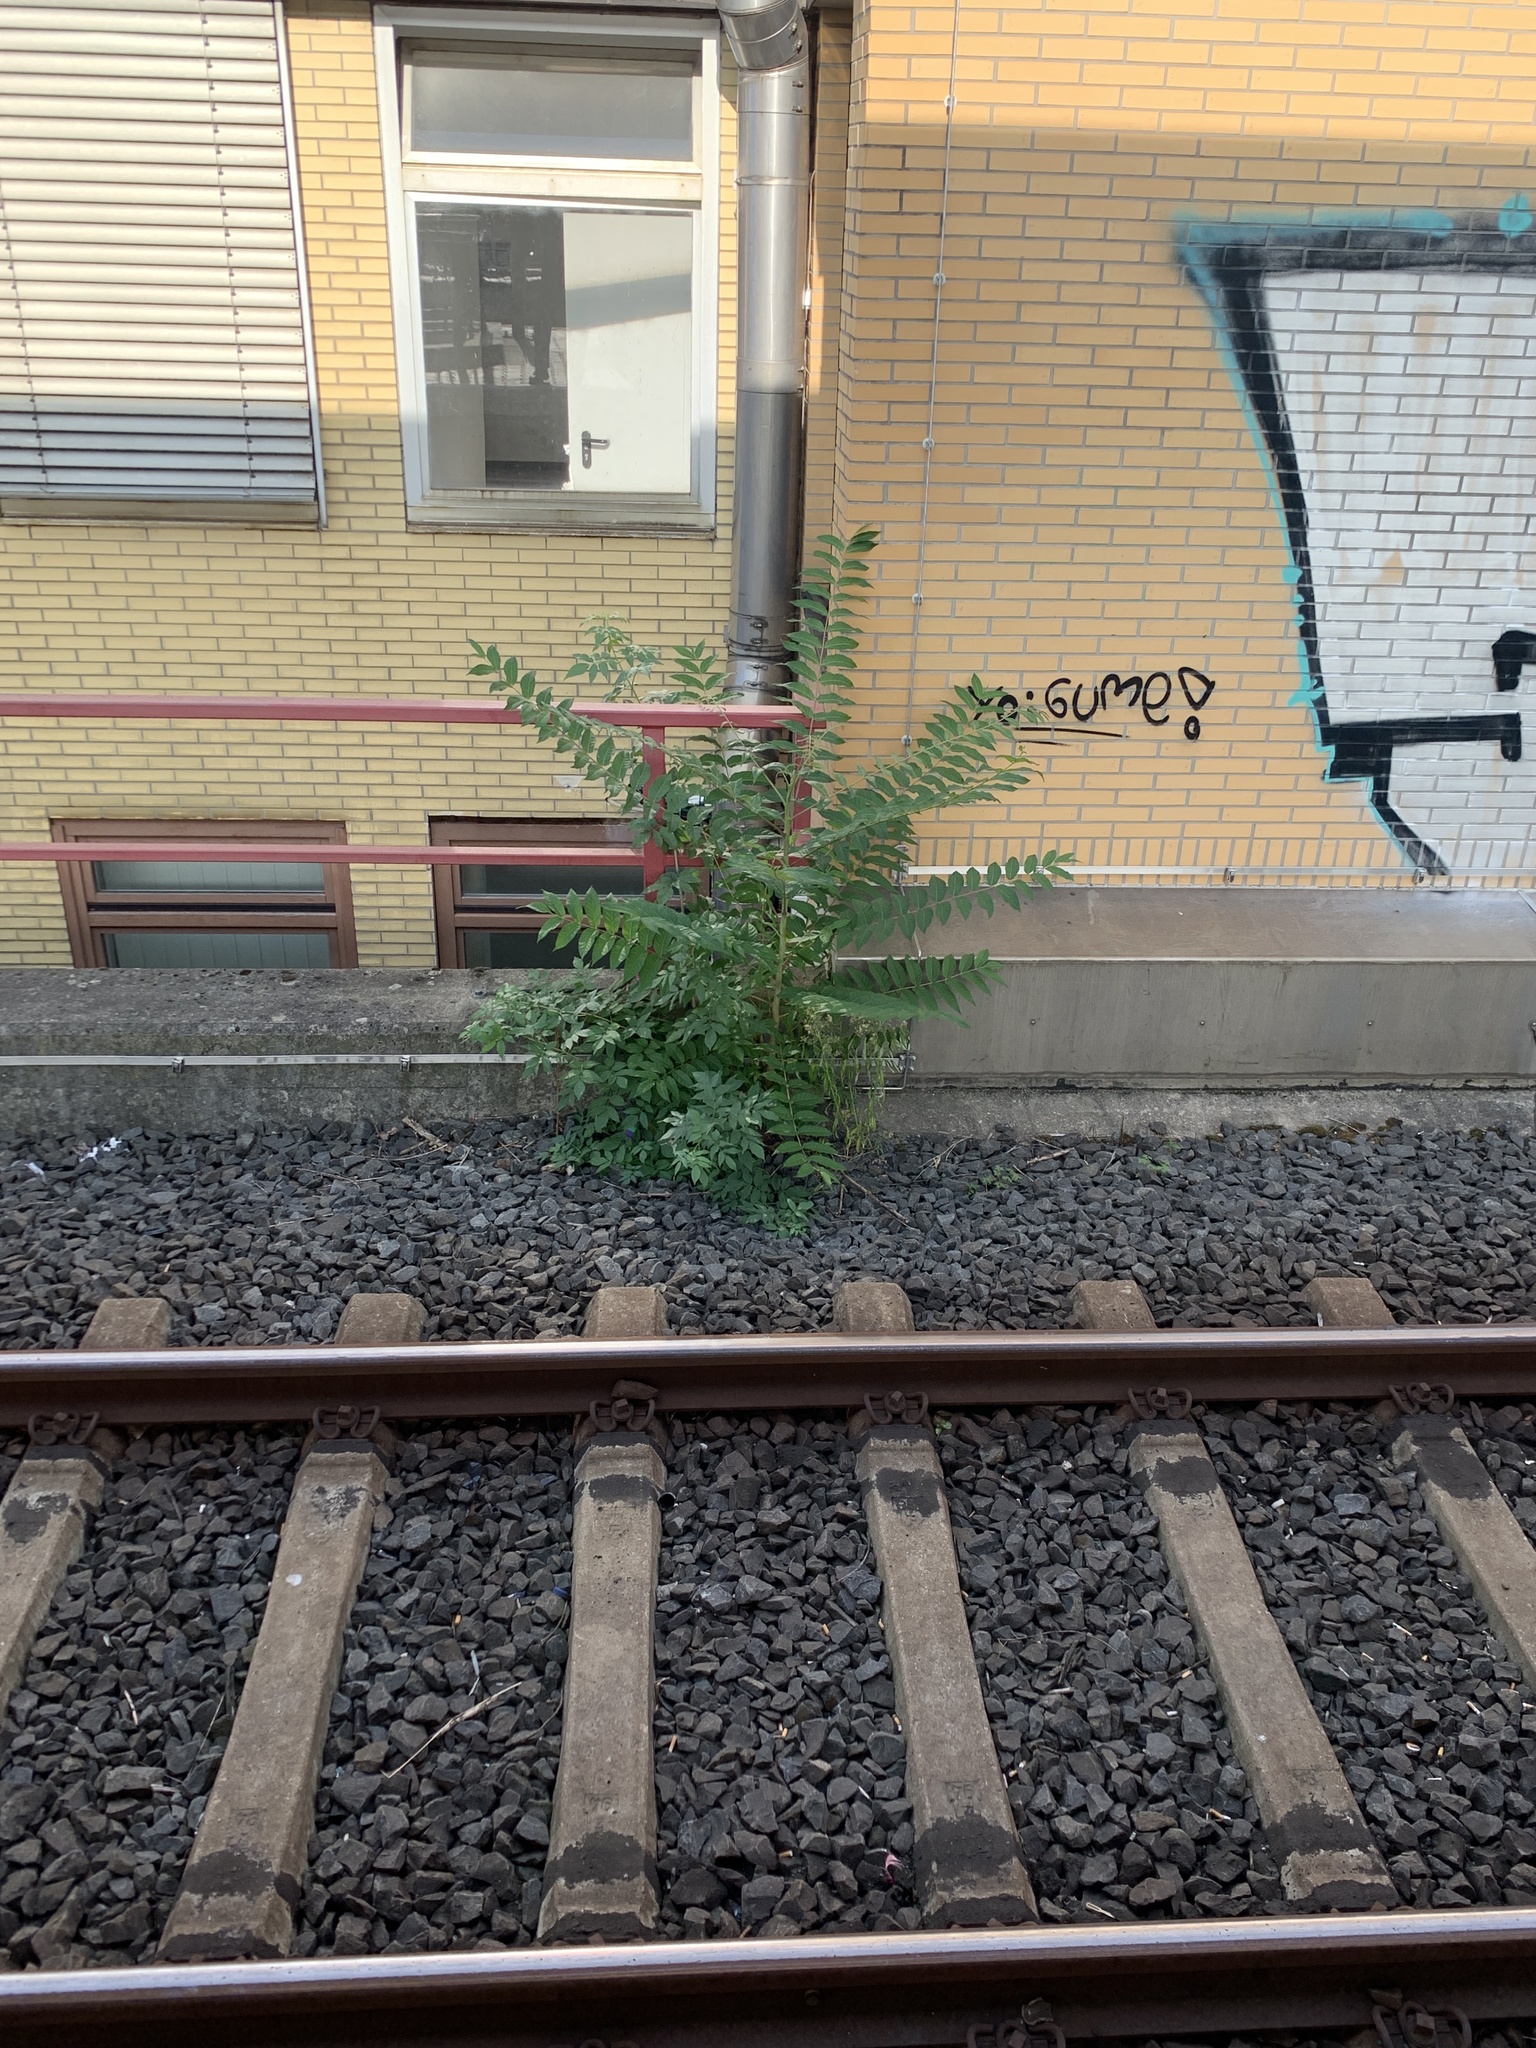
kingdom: Plantae
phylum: Tracheophyta
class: Magnoliopsida
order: Sapindales
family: Simaroubaceae
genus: Ailanthus
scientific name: Ailanthus altissima
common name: Tree-of-heaven
